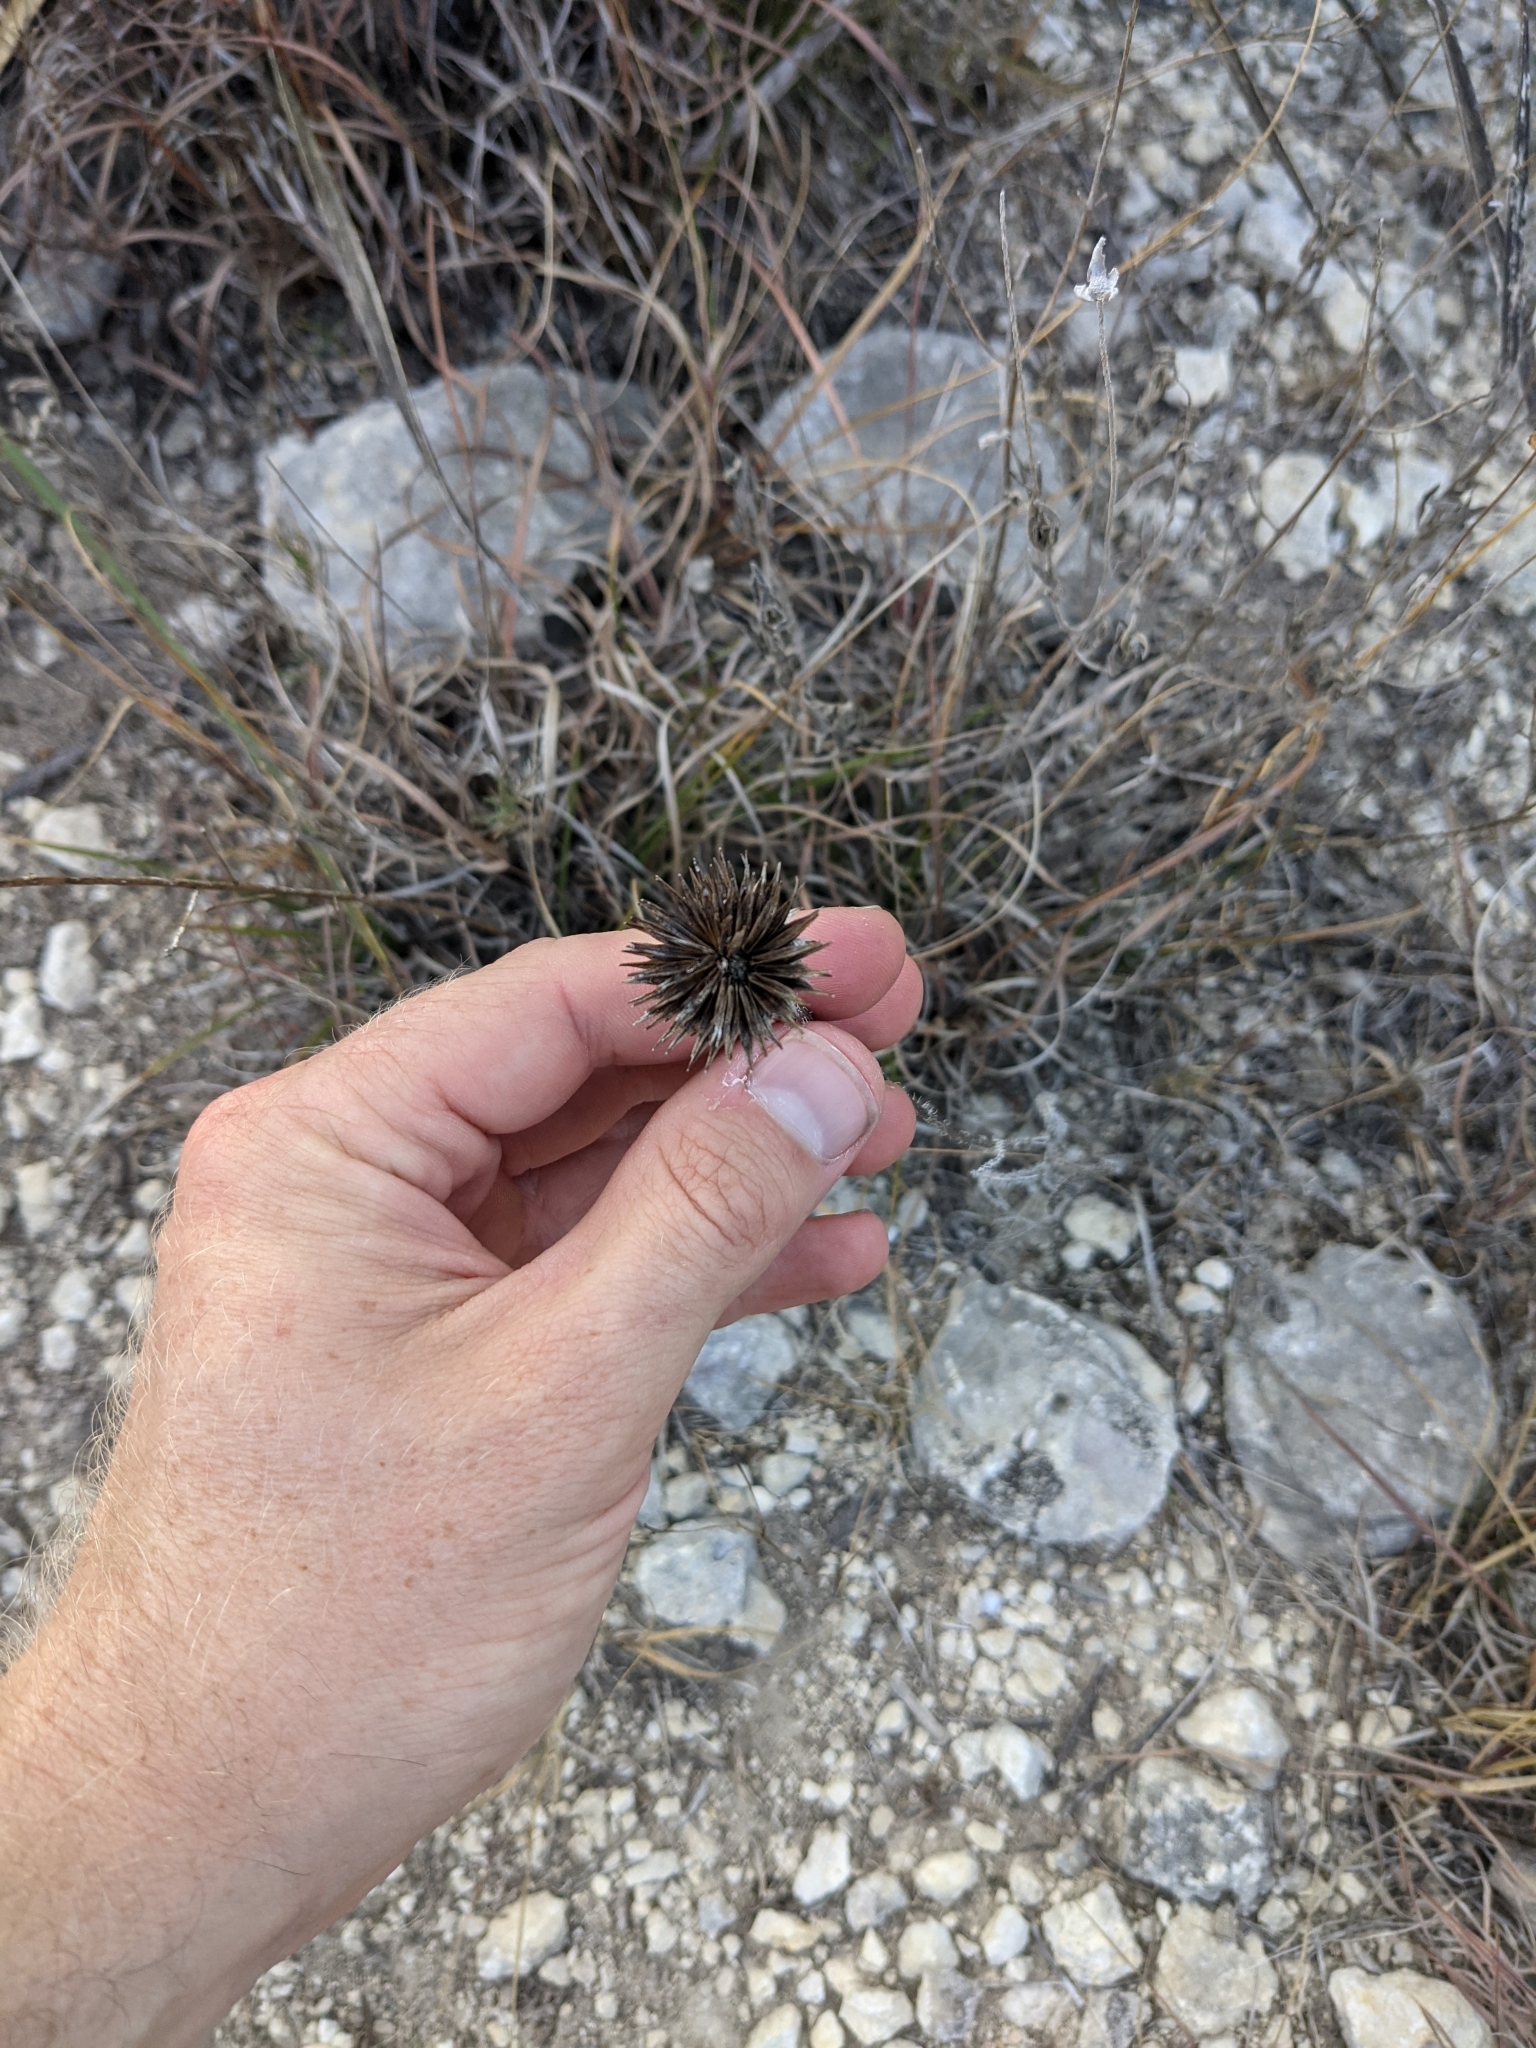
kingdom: Plantae
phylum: Tracheophyta
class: Magnoliopsida
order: Asterales
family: Asteraceae
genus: Echinacea
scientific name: Echinacea angustifolia
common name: Black-sampson echinacea
